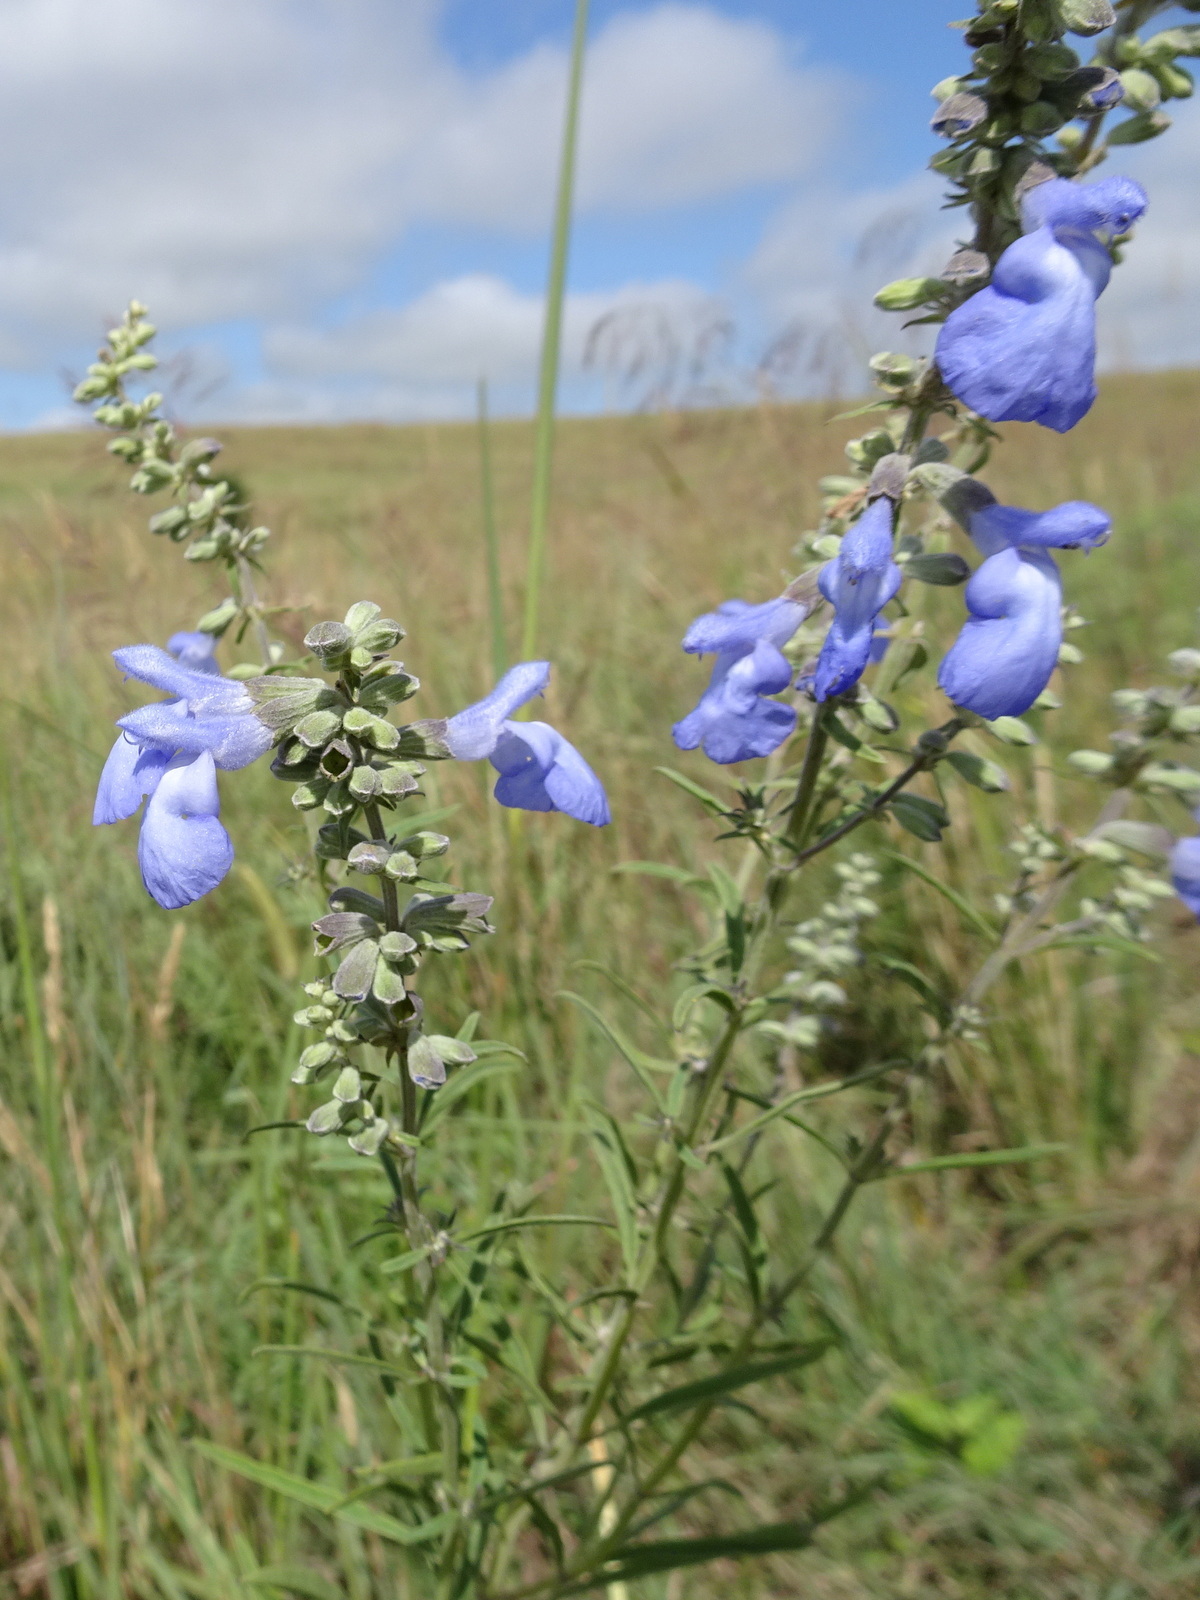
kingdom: Plantae
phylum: Tracheophyta
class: Magnoliopsida
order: Lamiales
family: Lamiaceae
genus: Salvia
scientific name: Salvia azurea
